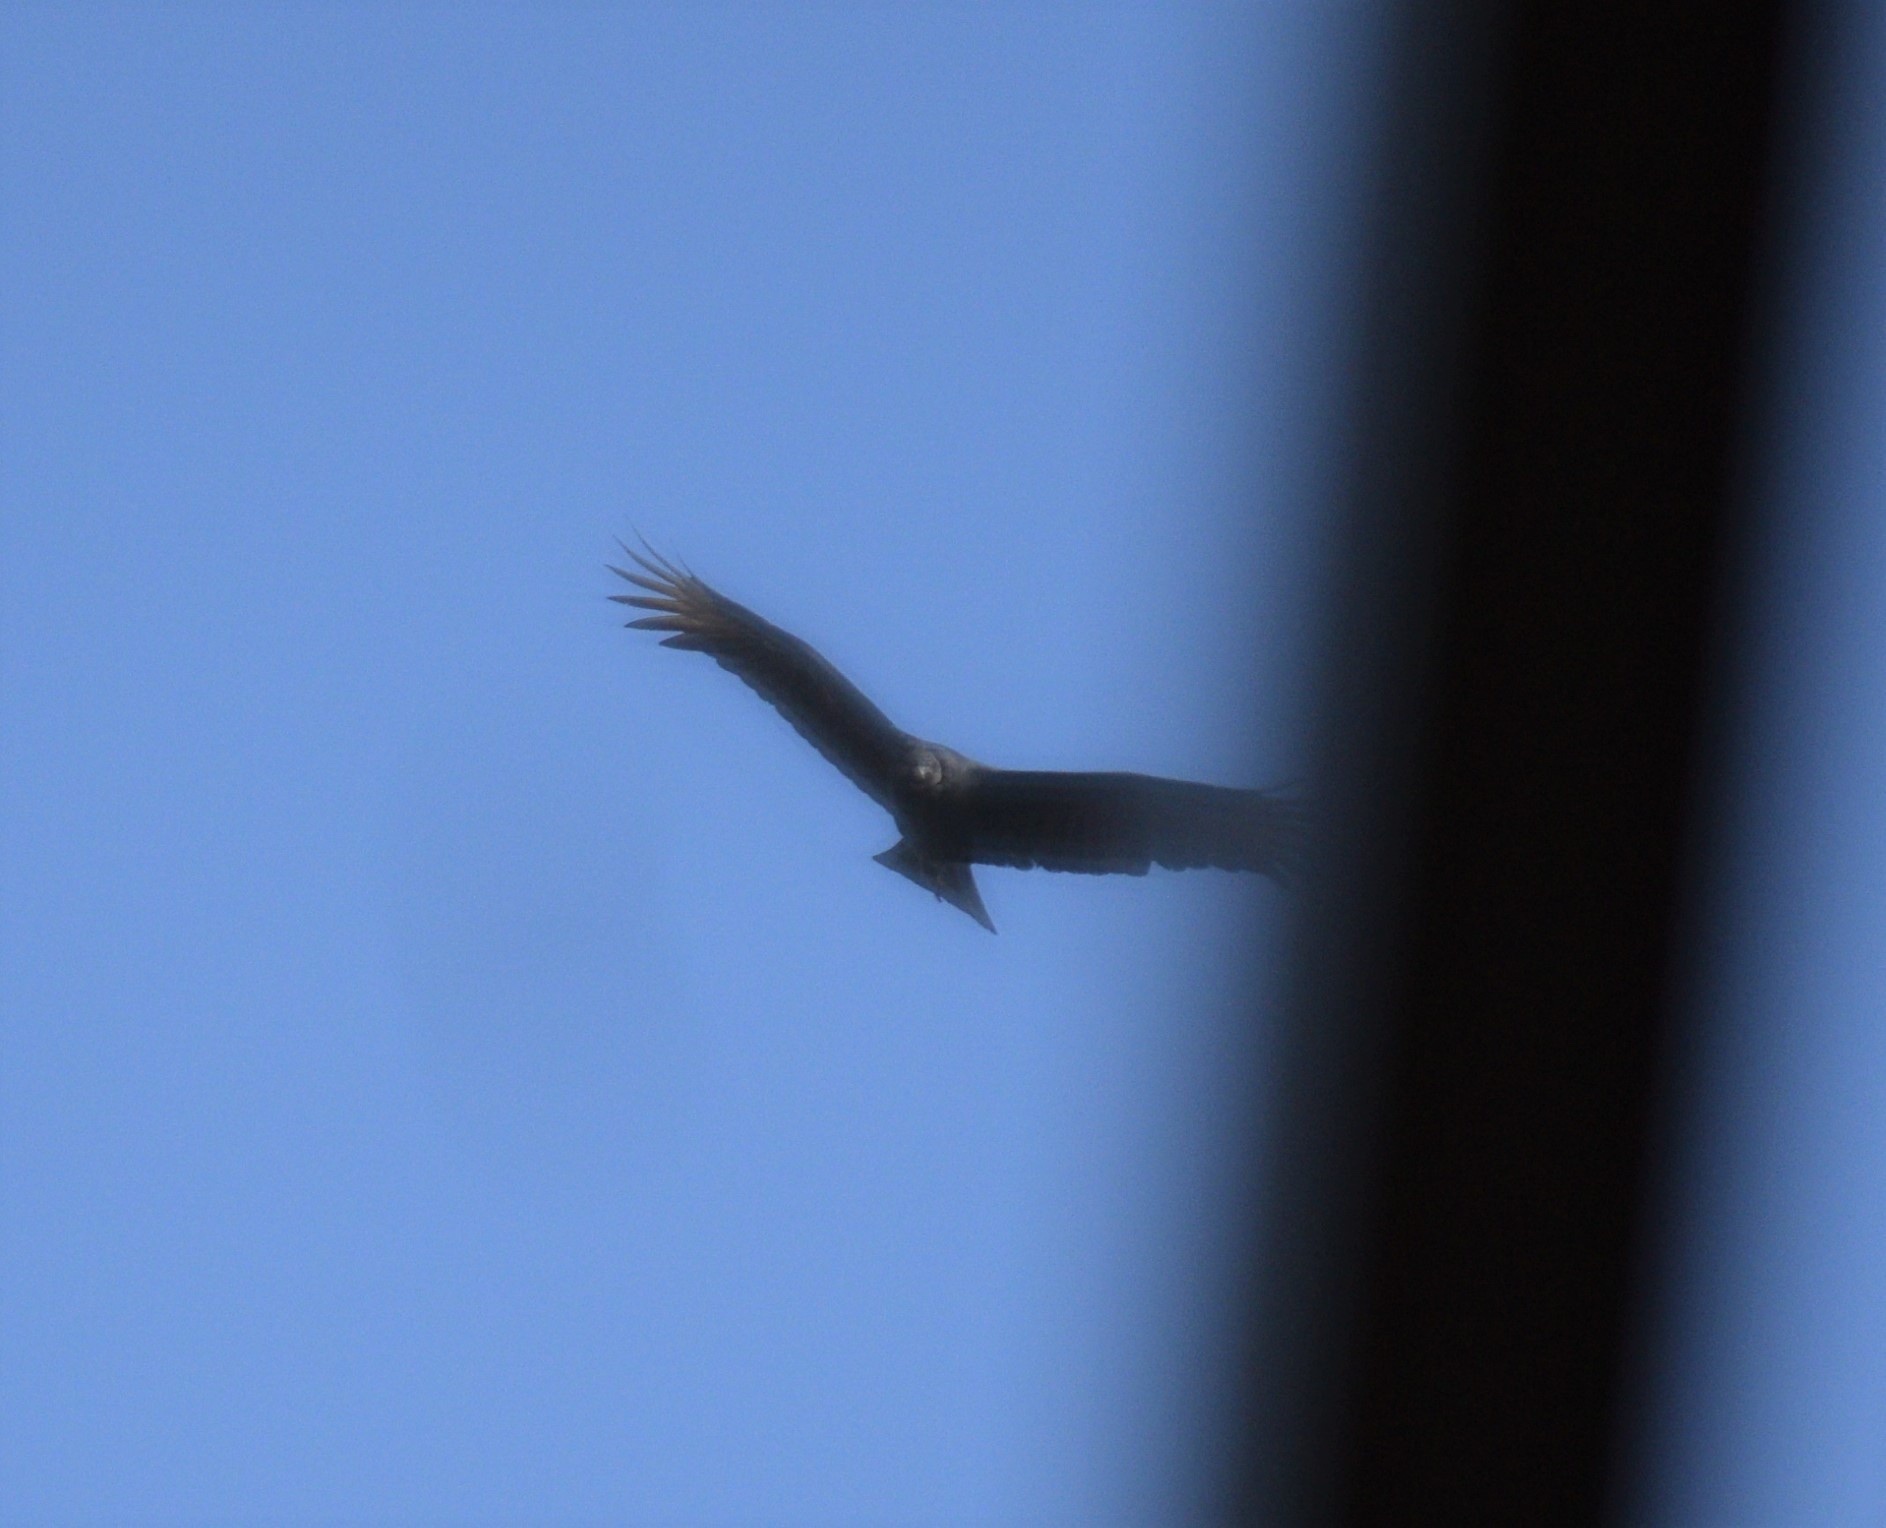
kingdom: Animalia
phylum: Chordata
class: Aves
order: Accipitriformes
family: Cathartidae
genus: Coragyps
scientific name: Coragyps atratus
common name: Black vulture
